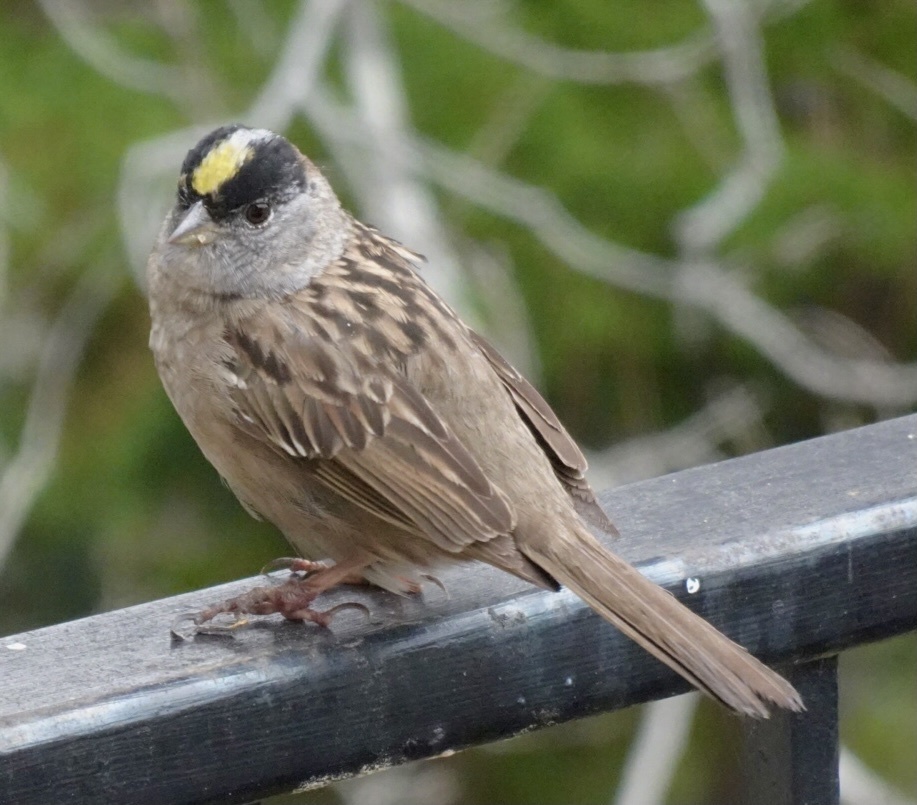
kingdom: Animalia
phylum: Chordata
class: Aves
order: Passeriformes
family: Passerellidae
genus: Zonotrichia
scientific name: Zonotrichia atricapilla
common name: Golden-crowned sparrow
